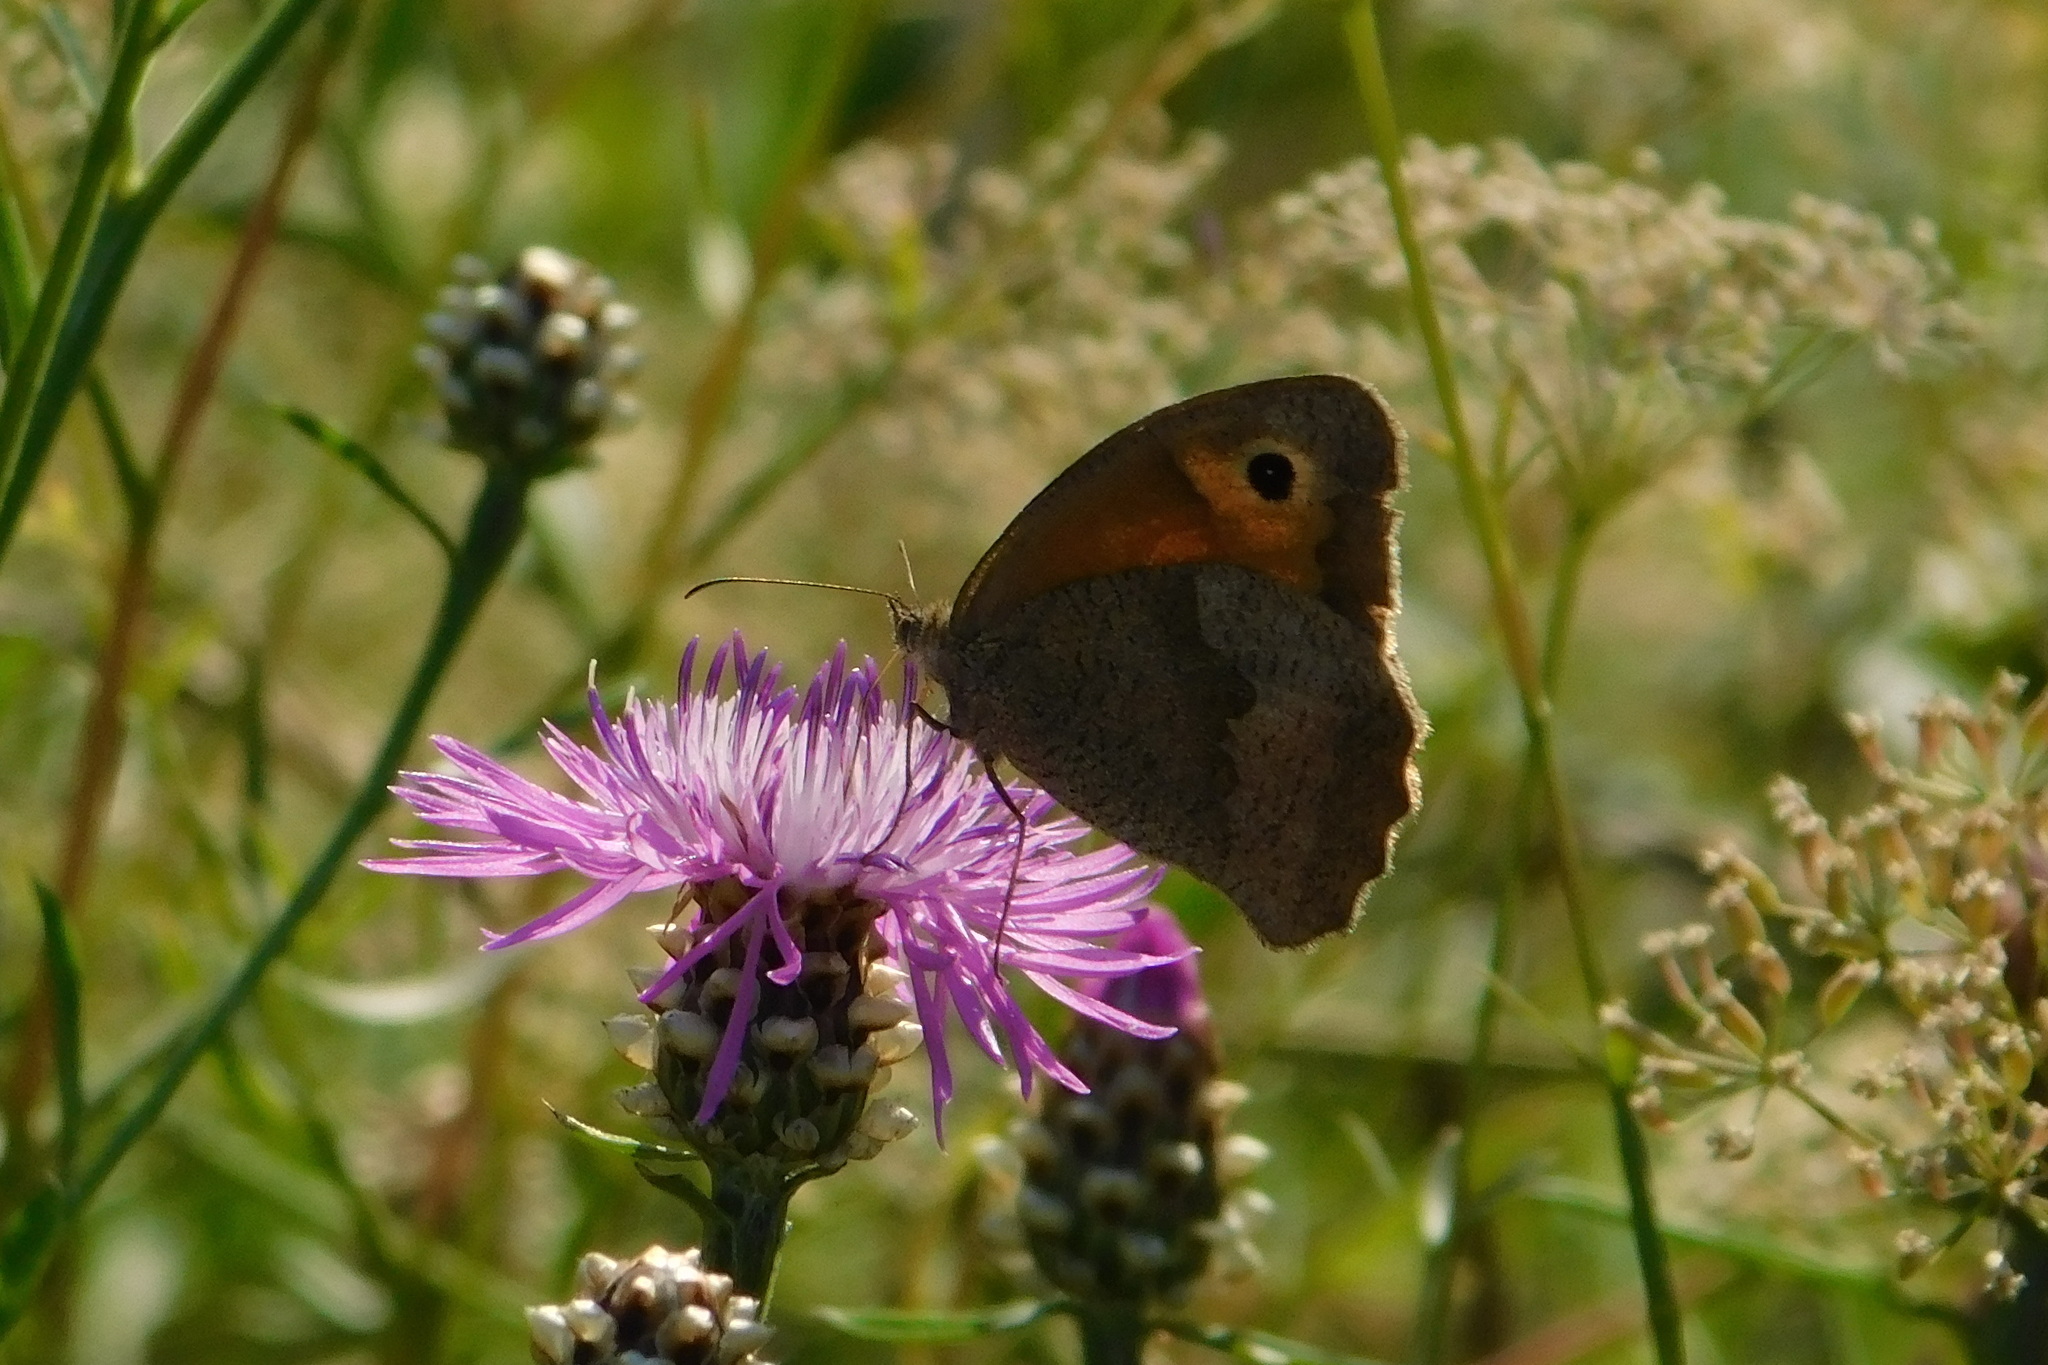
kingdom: Animalia
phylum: Arthropoda
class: Insecta
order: Lepidoptera
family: Nymphalidae
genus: Maniola
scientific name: Maniola jurtina
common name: Meadow brown
